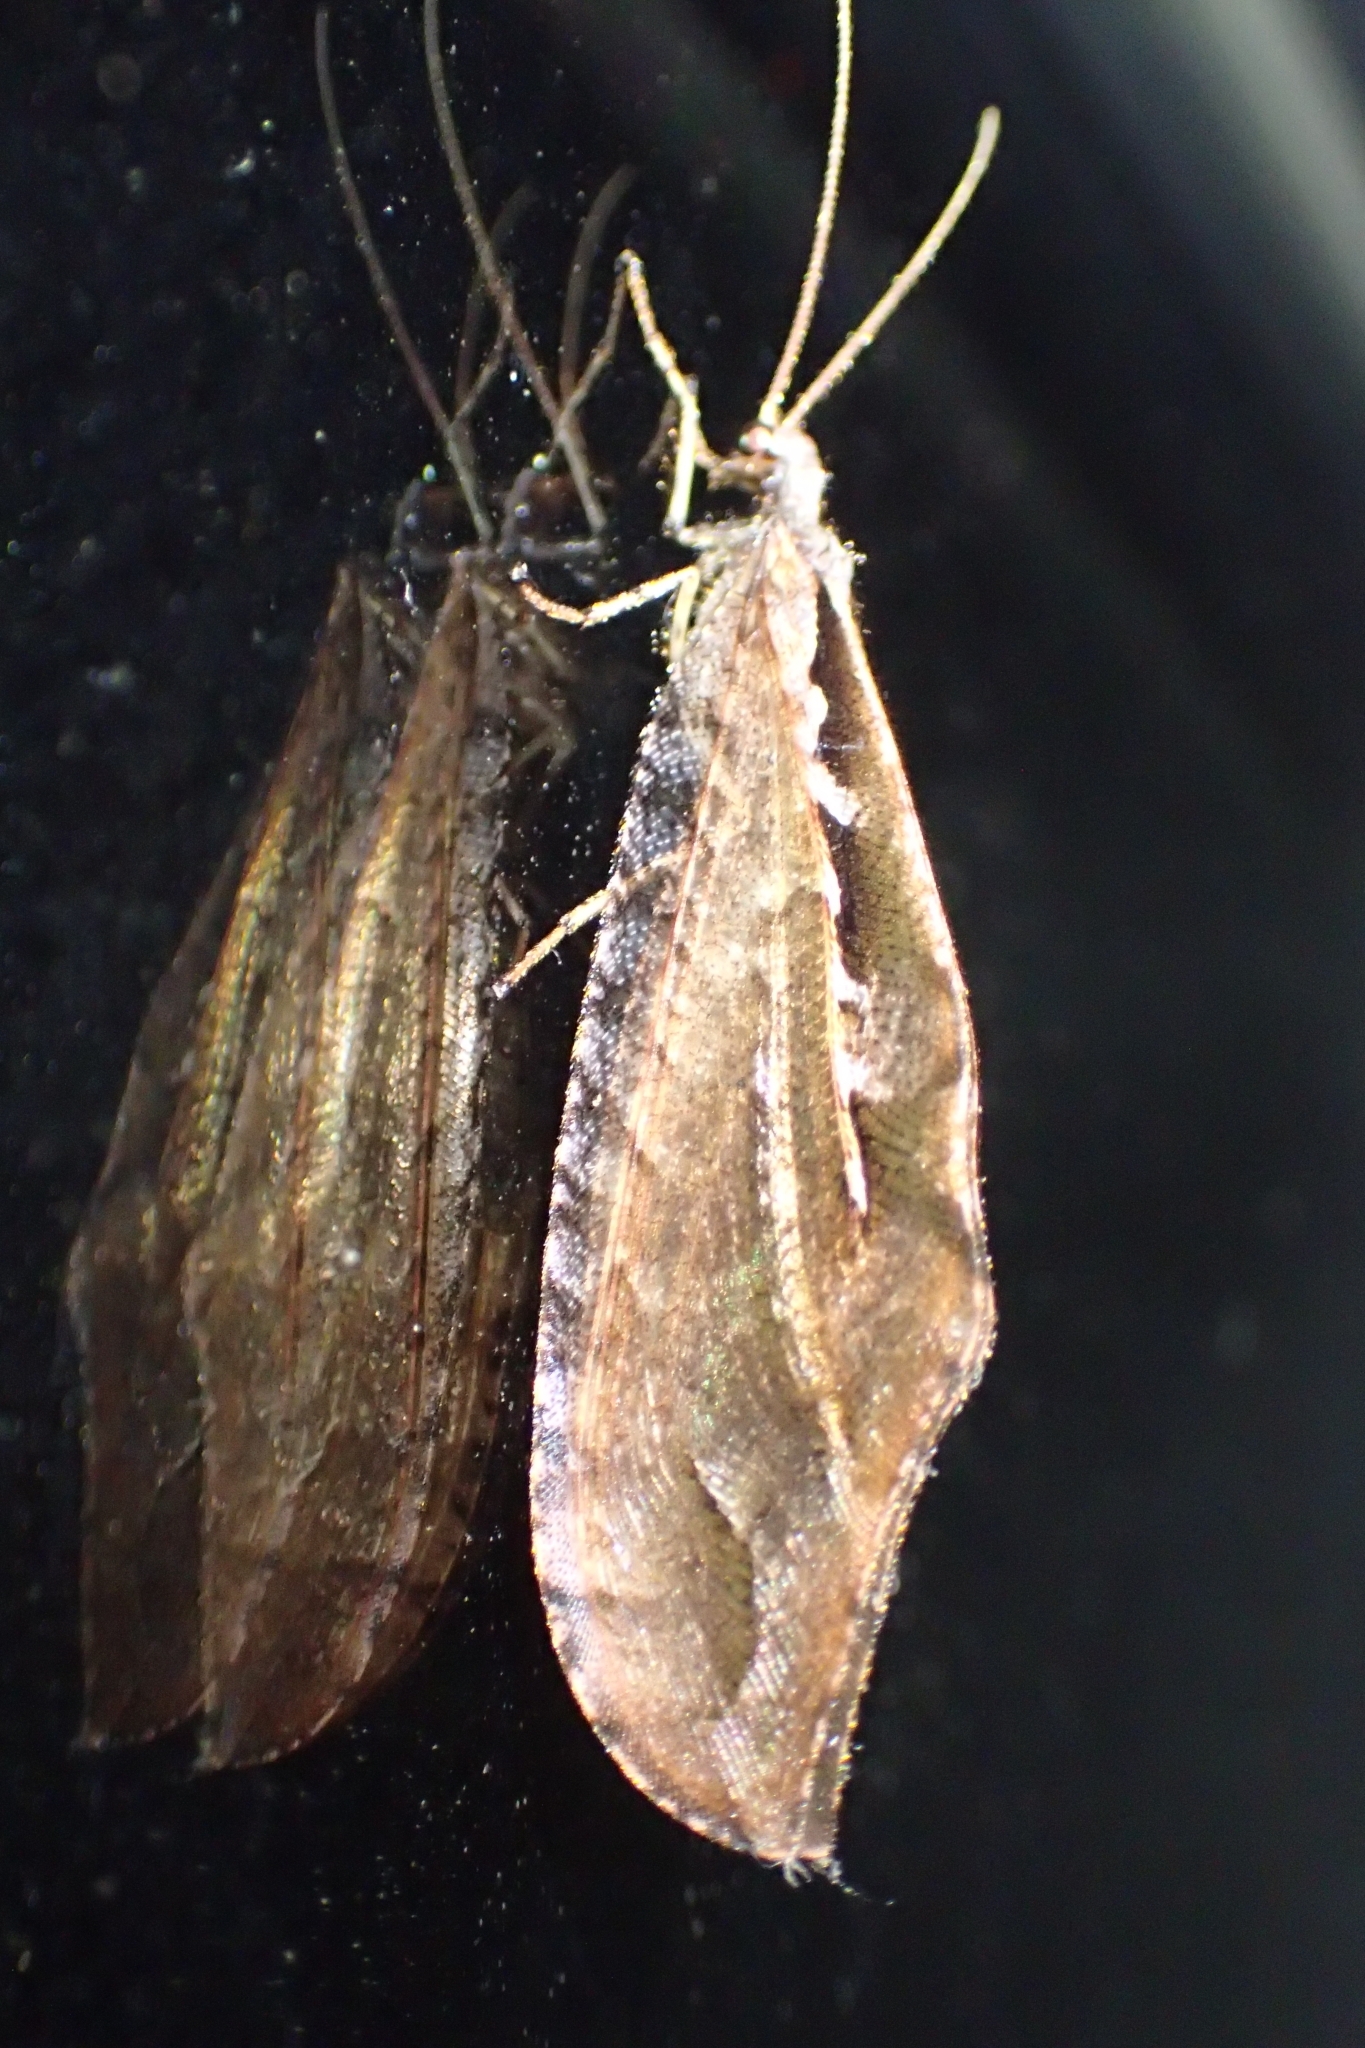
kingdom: Animalia
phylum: Arthropoda
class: Insecta
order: Neuroptera
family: Osmylidae
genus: Kempynus
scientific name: Kempynus incisus
